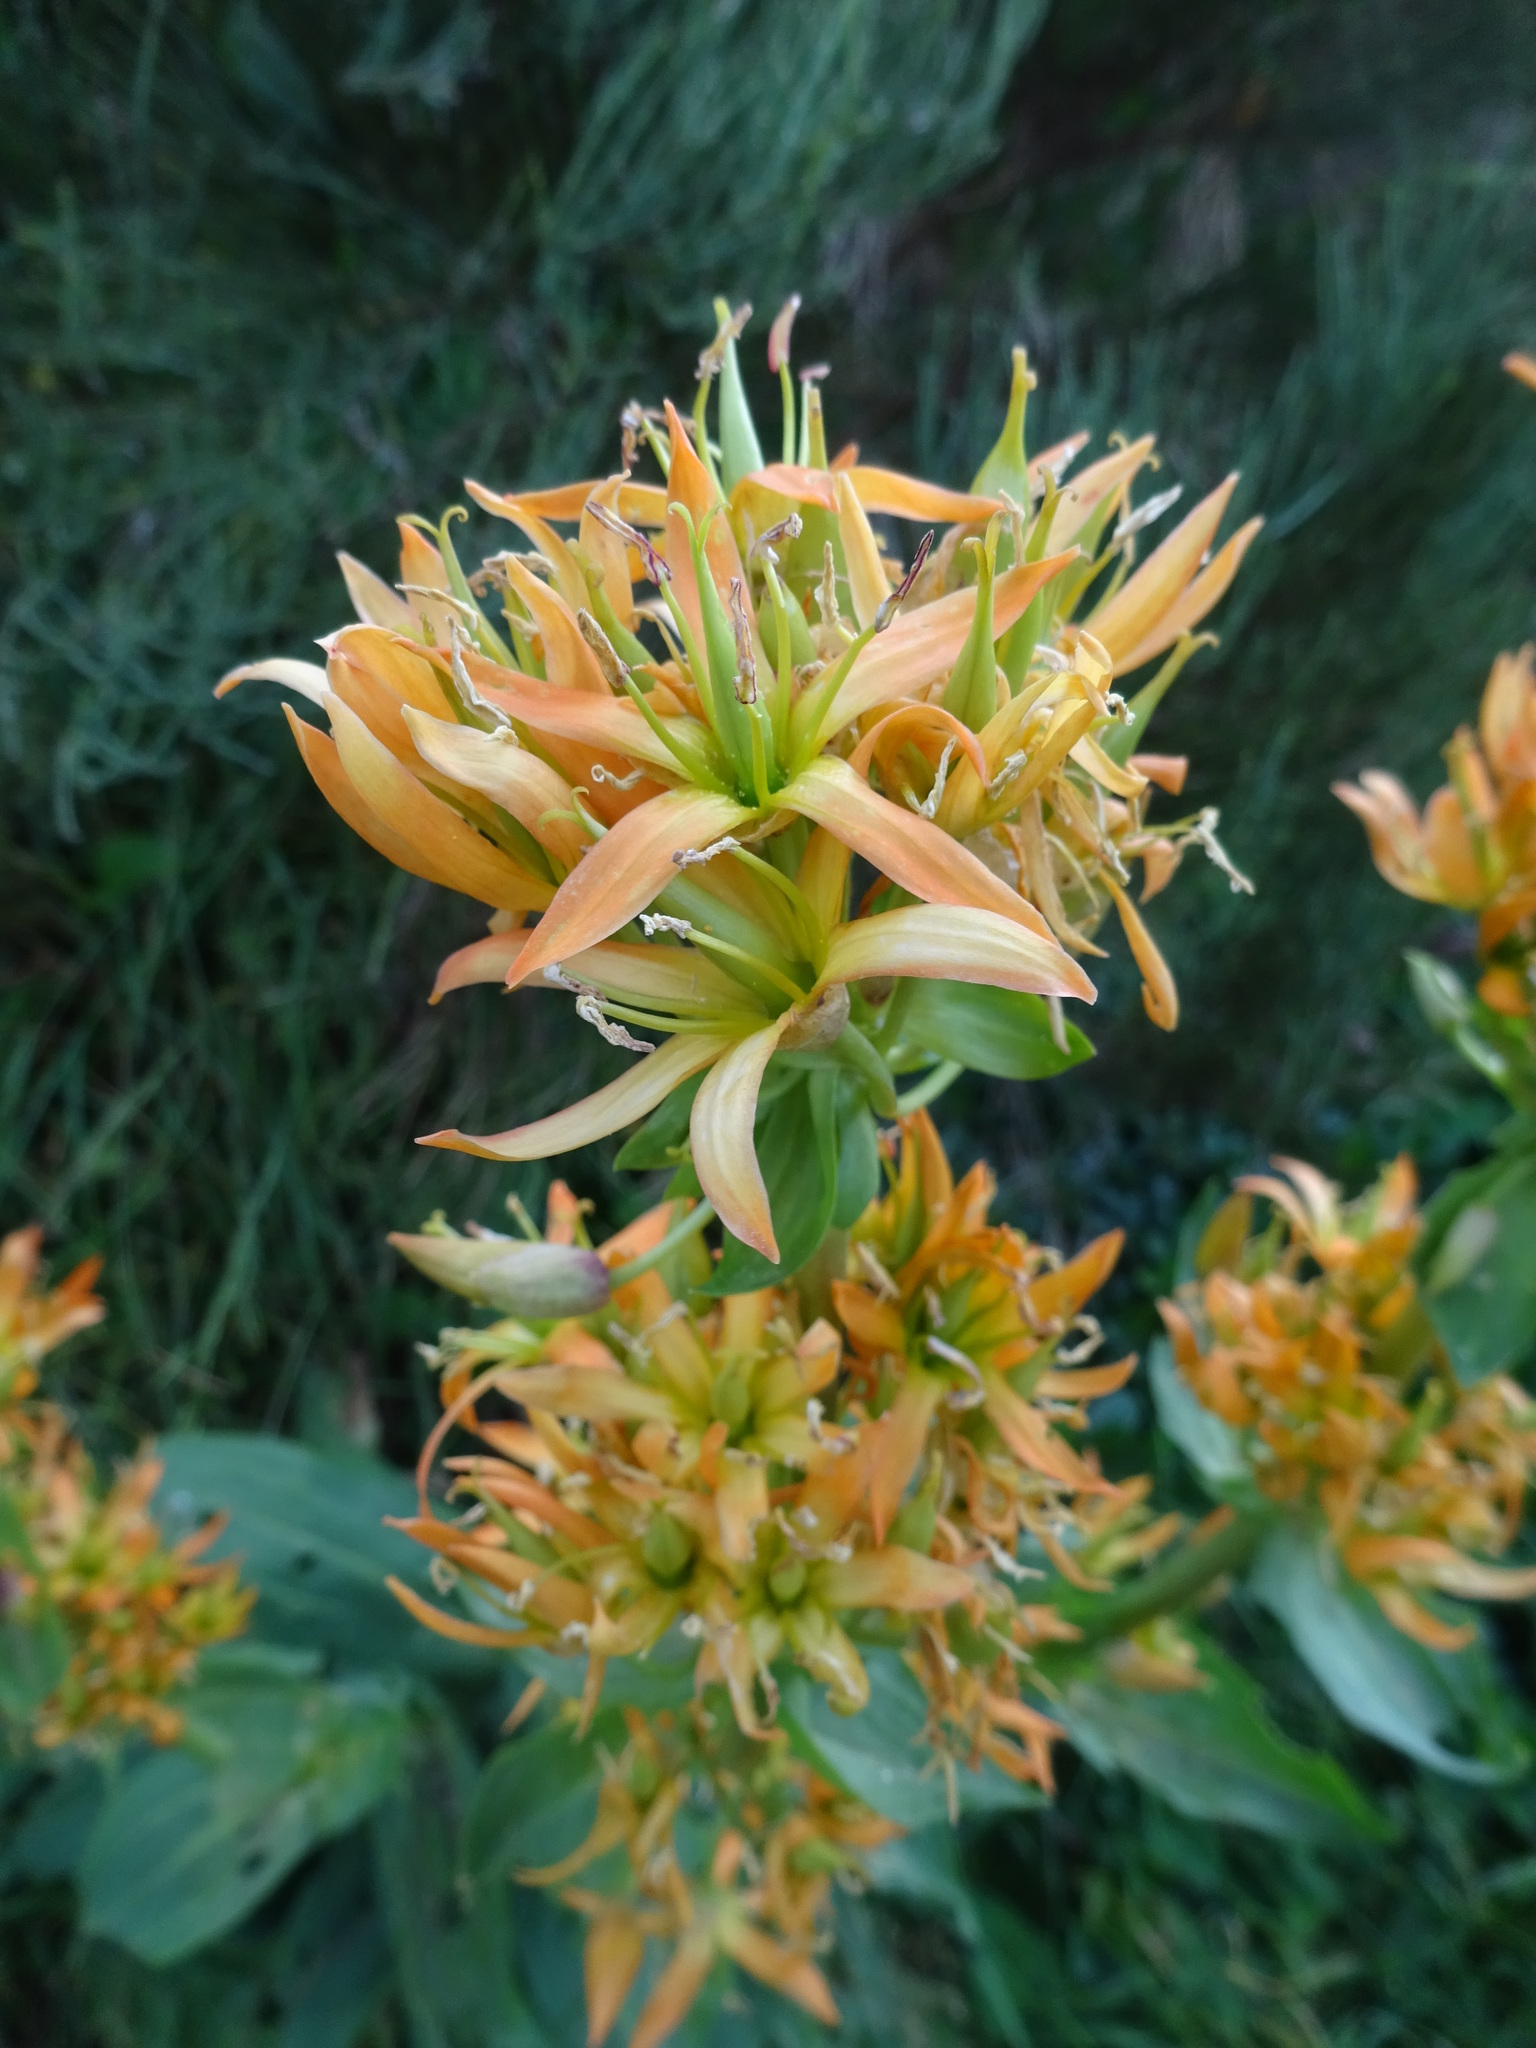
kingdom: Plantae
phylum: Tracheophyta
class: Magnoliopsida
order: Gentianales
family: Gentianaceae
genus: Gentiana
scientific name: Gentiana lutea
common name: Great yellow gentian
